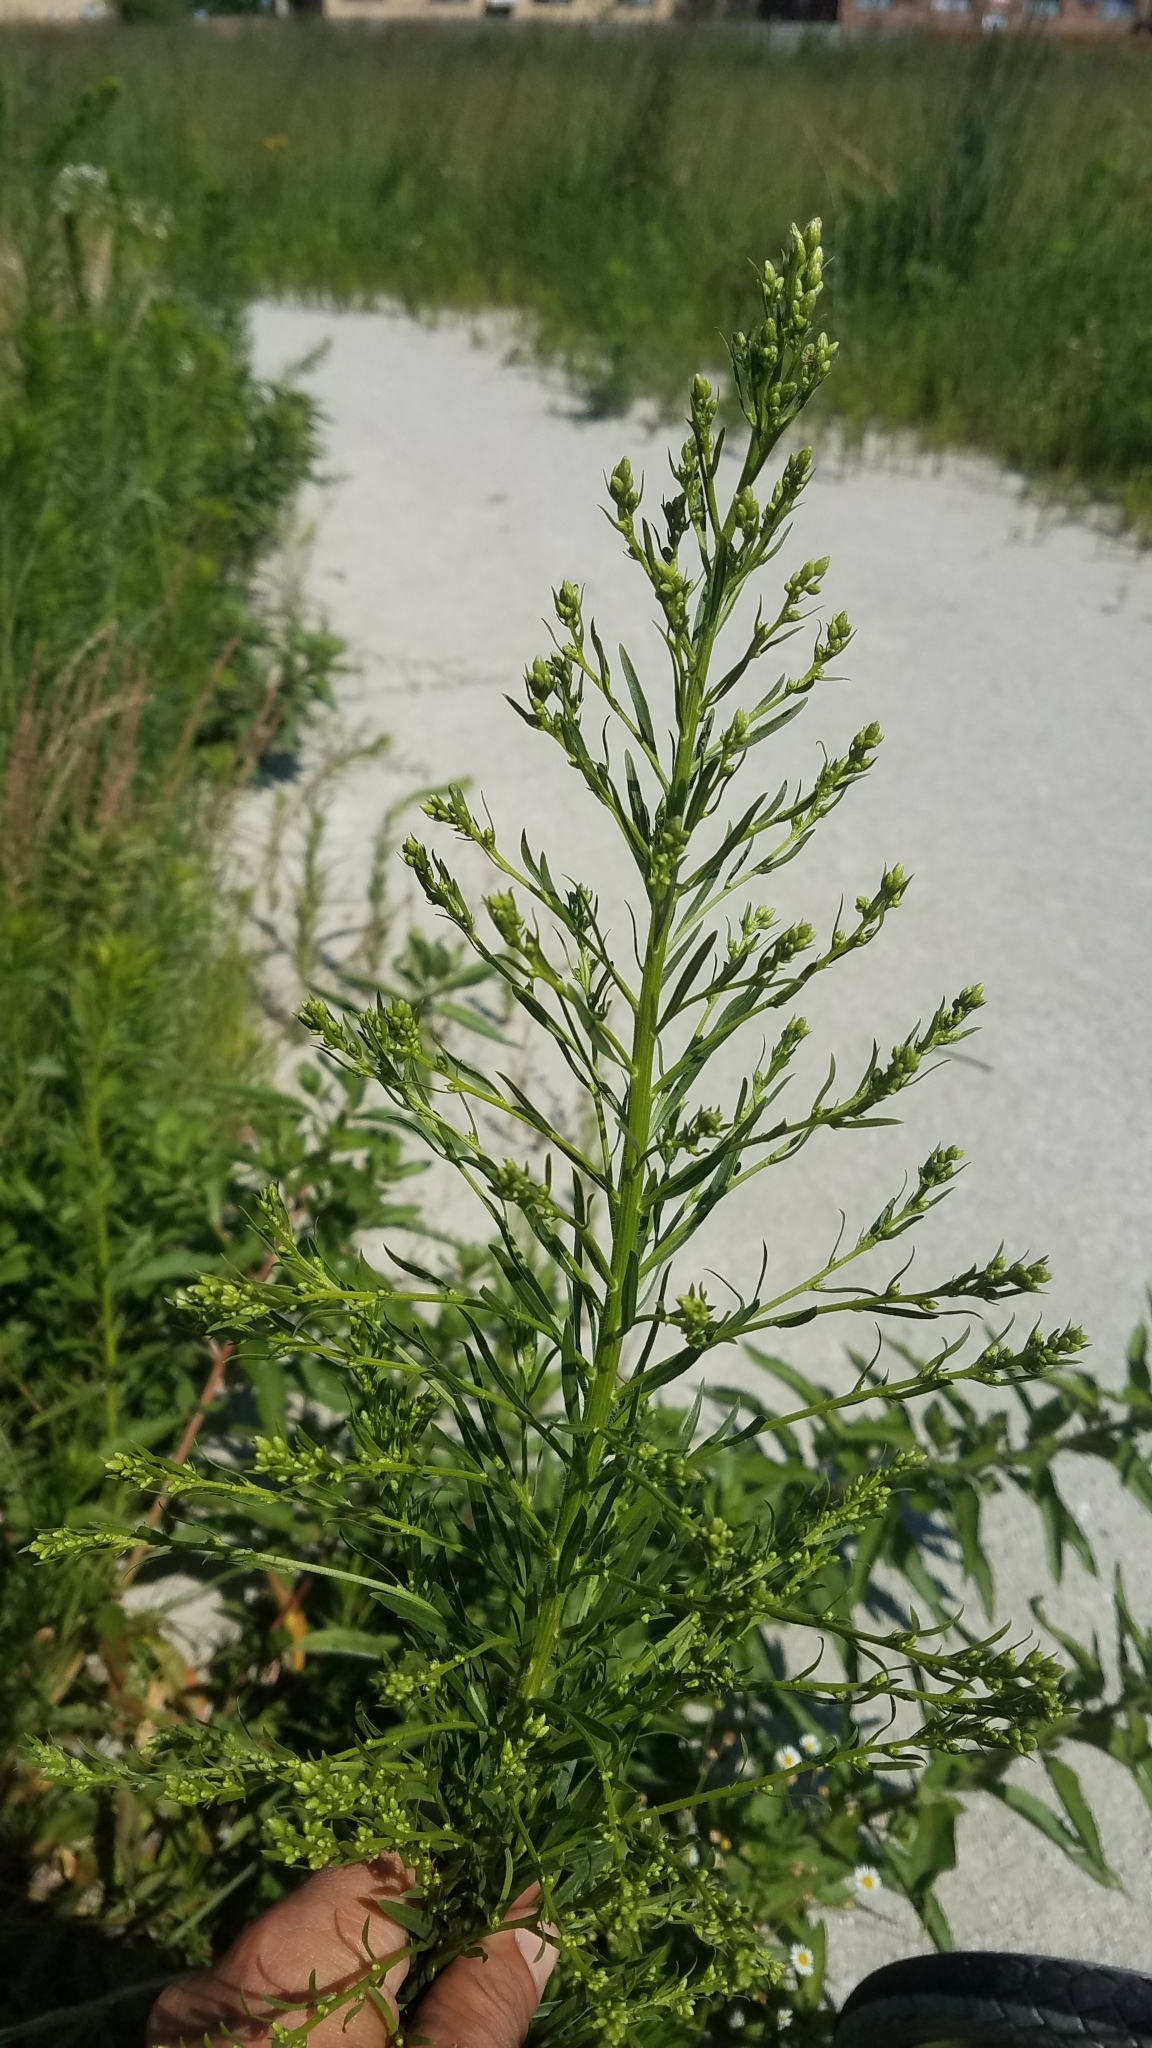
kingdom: Plantae
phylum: Tracheophyta
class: Magnoliopsida
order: Asterales
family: Asteraceae
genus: Erigeron
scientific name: Erigeron canadensis
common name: Canadian fleabane
